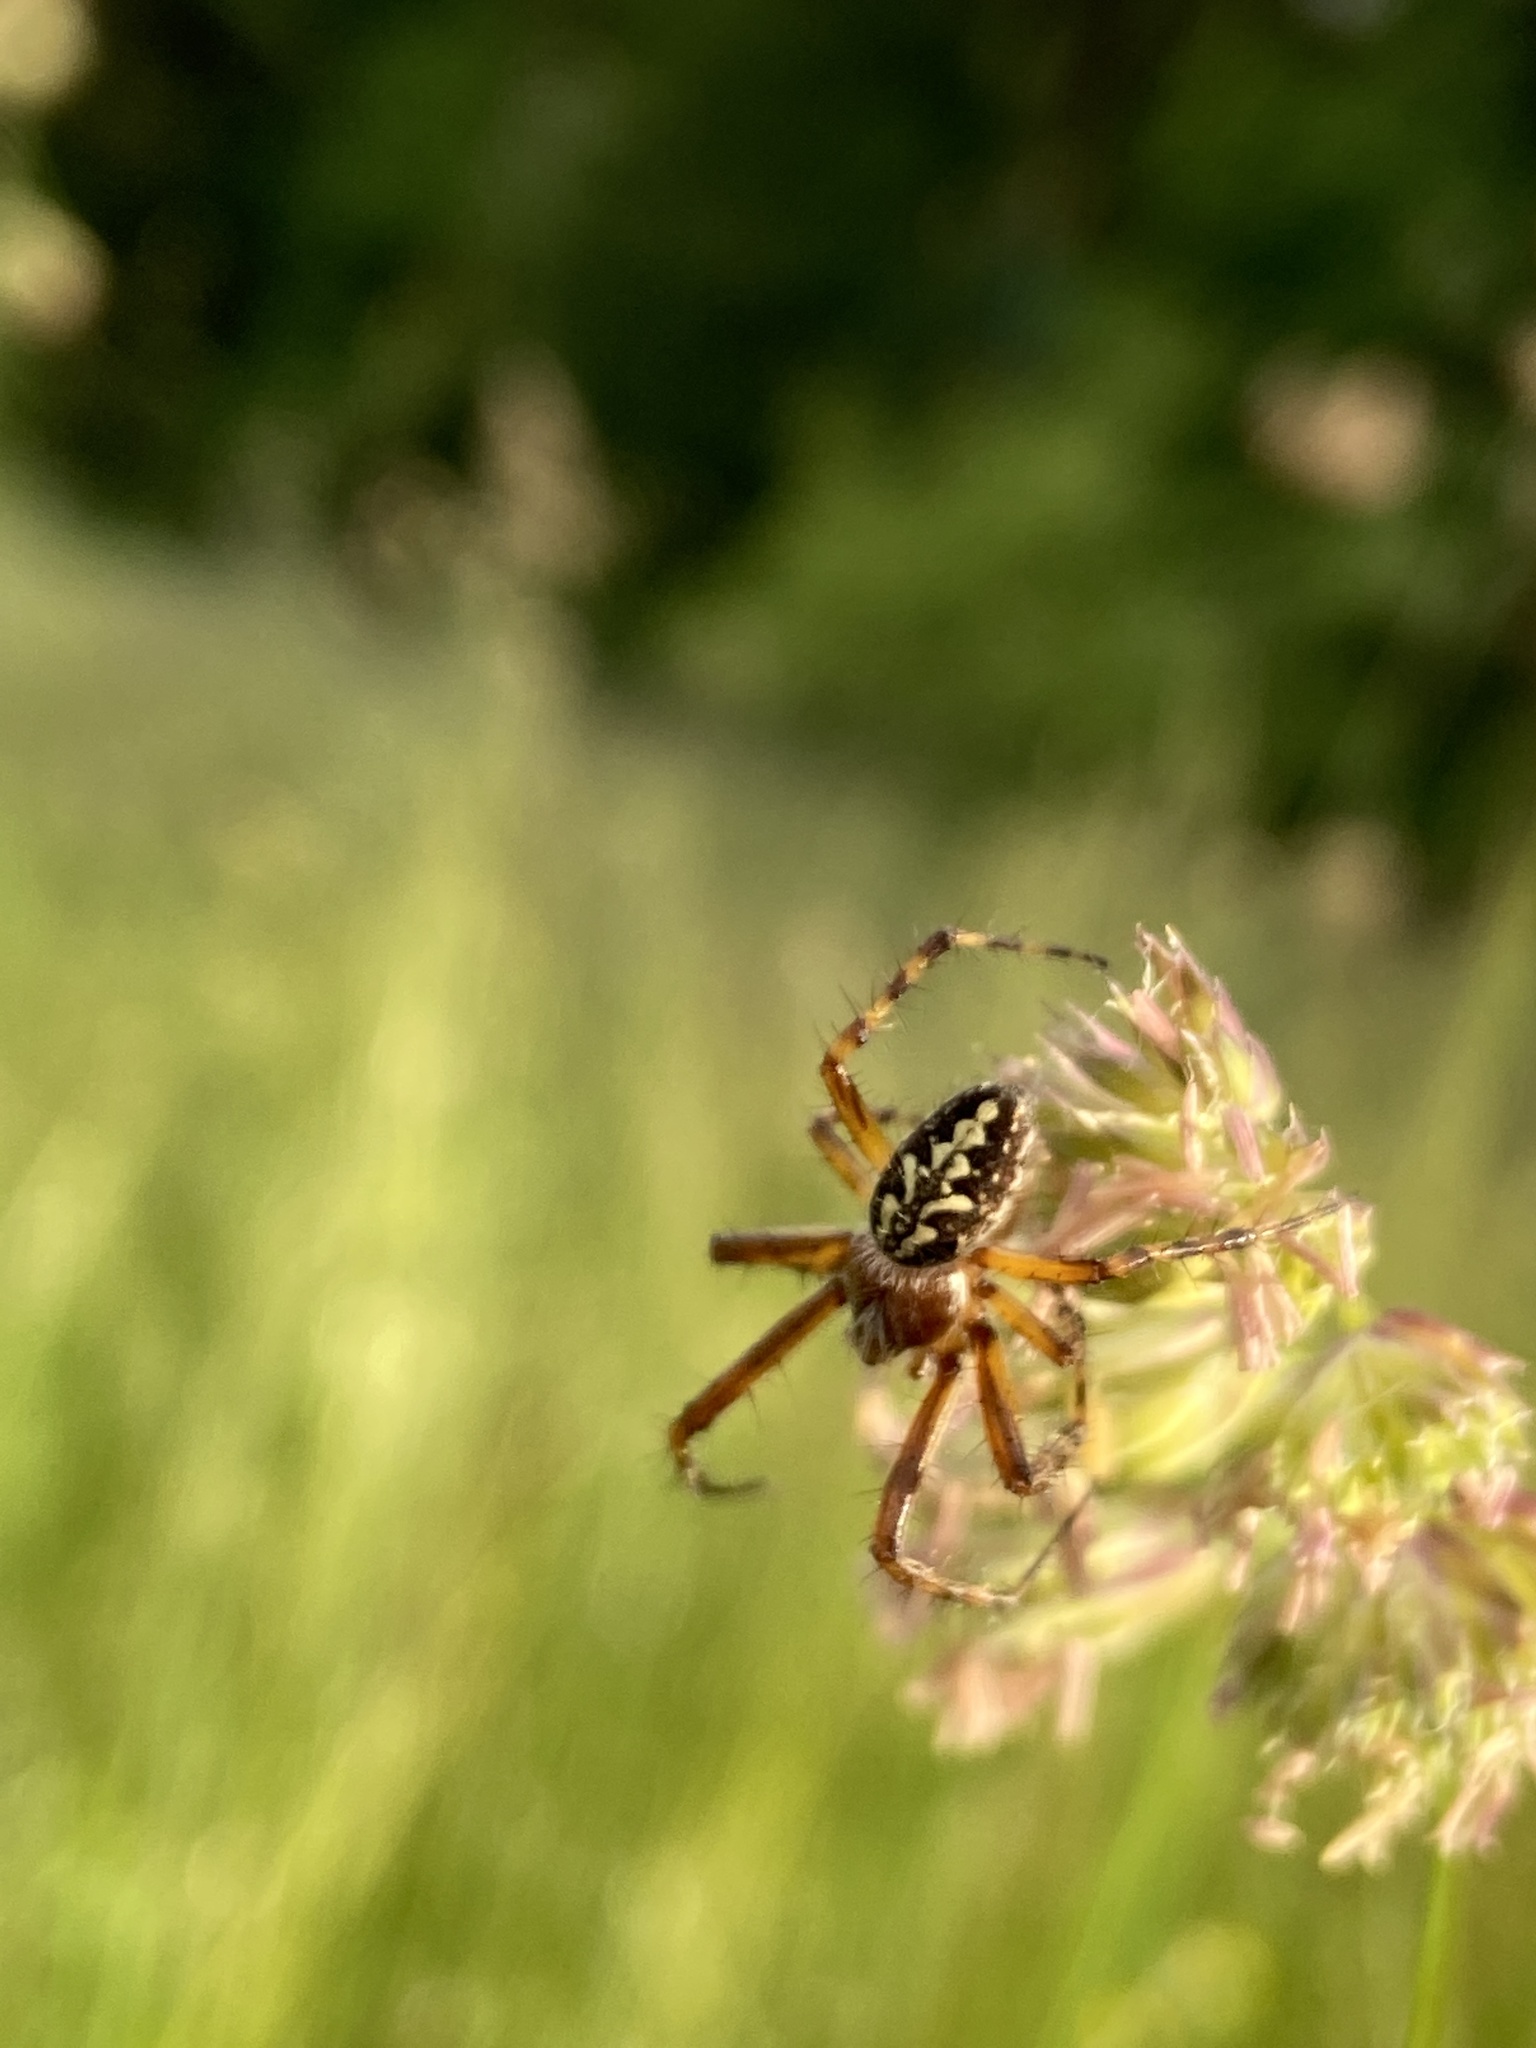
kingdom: Animalia
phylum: Arthropoda
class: Arachnida
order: Araneae
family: Araneidae
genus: Aculepeira
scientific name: Aculepeira ceropegia
